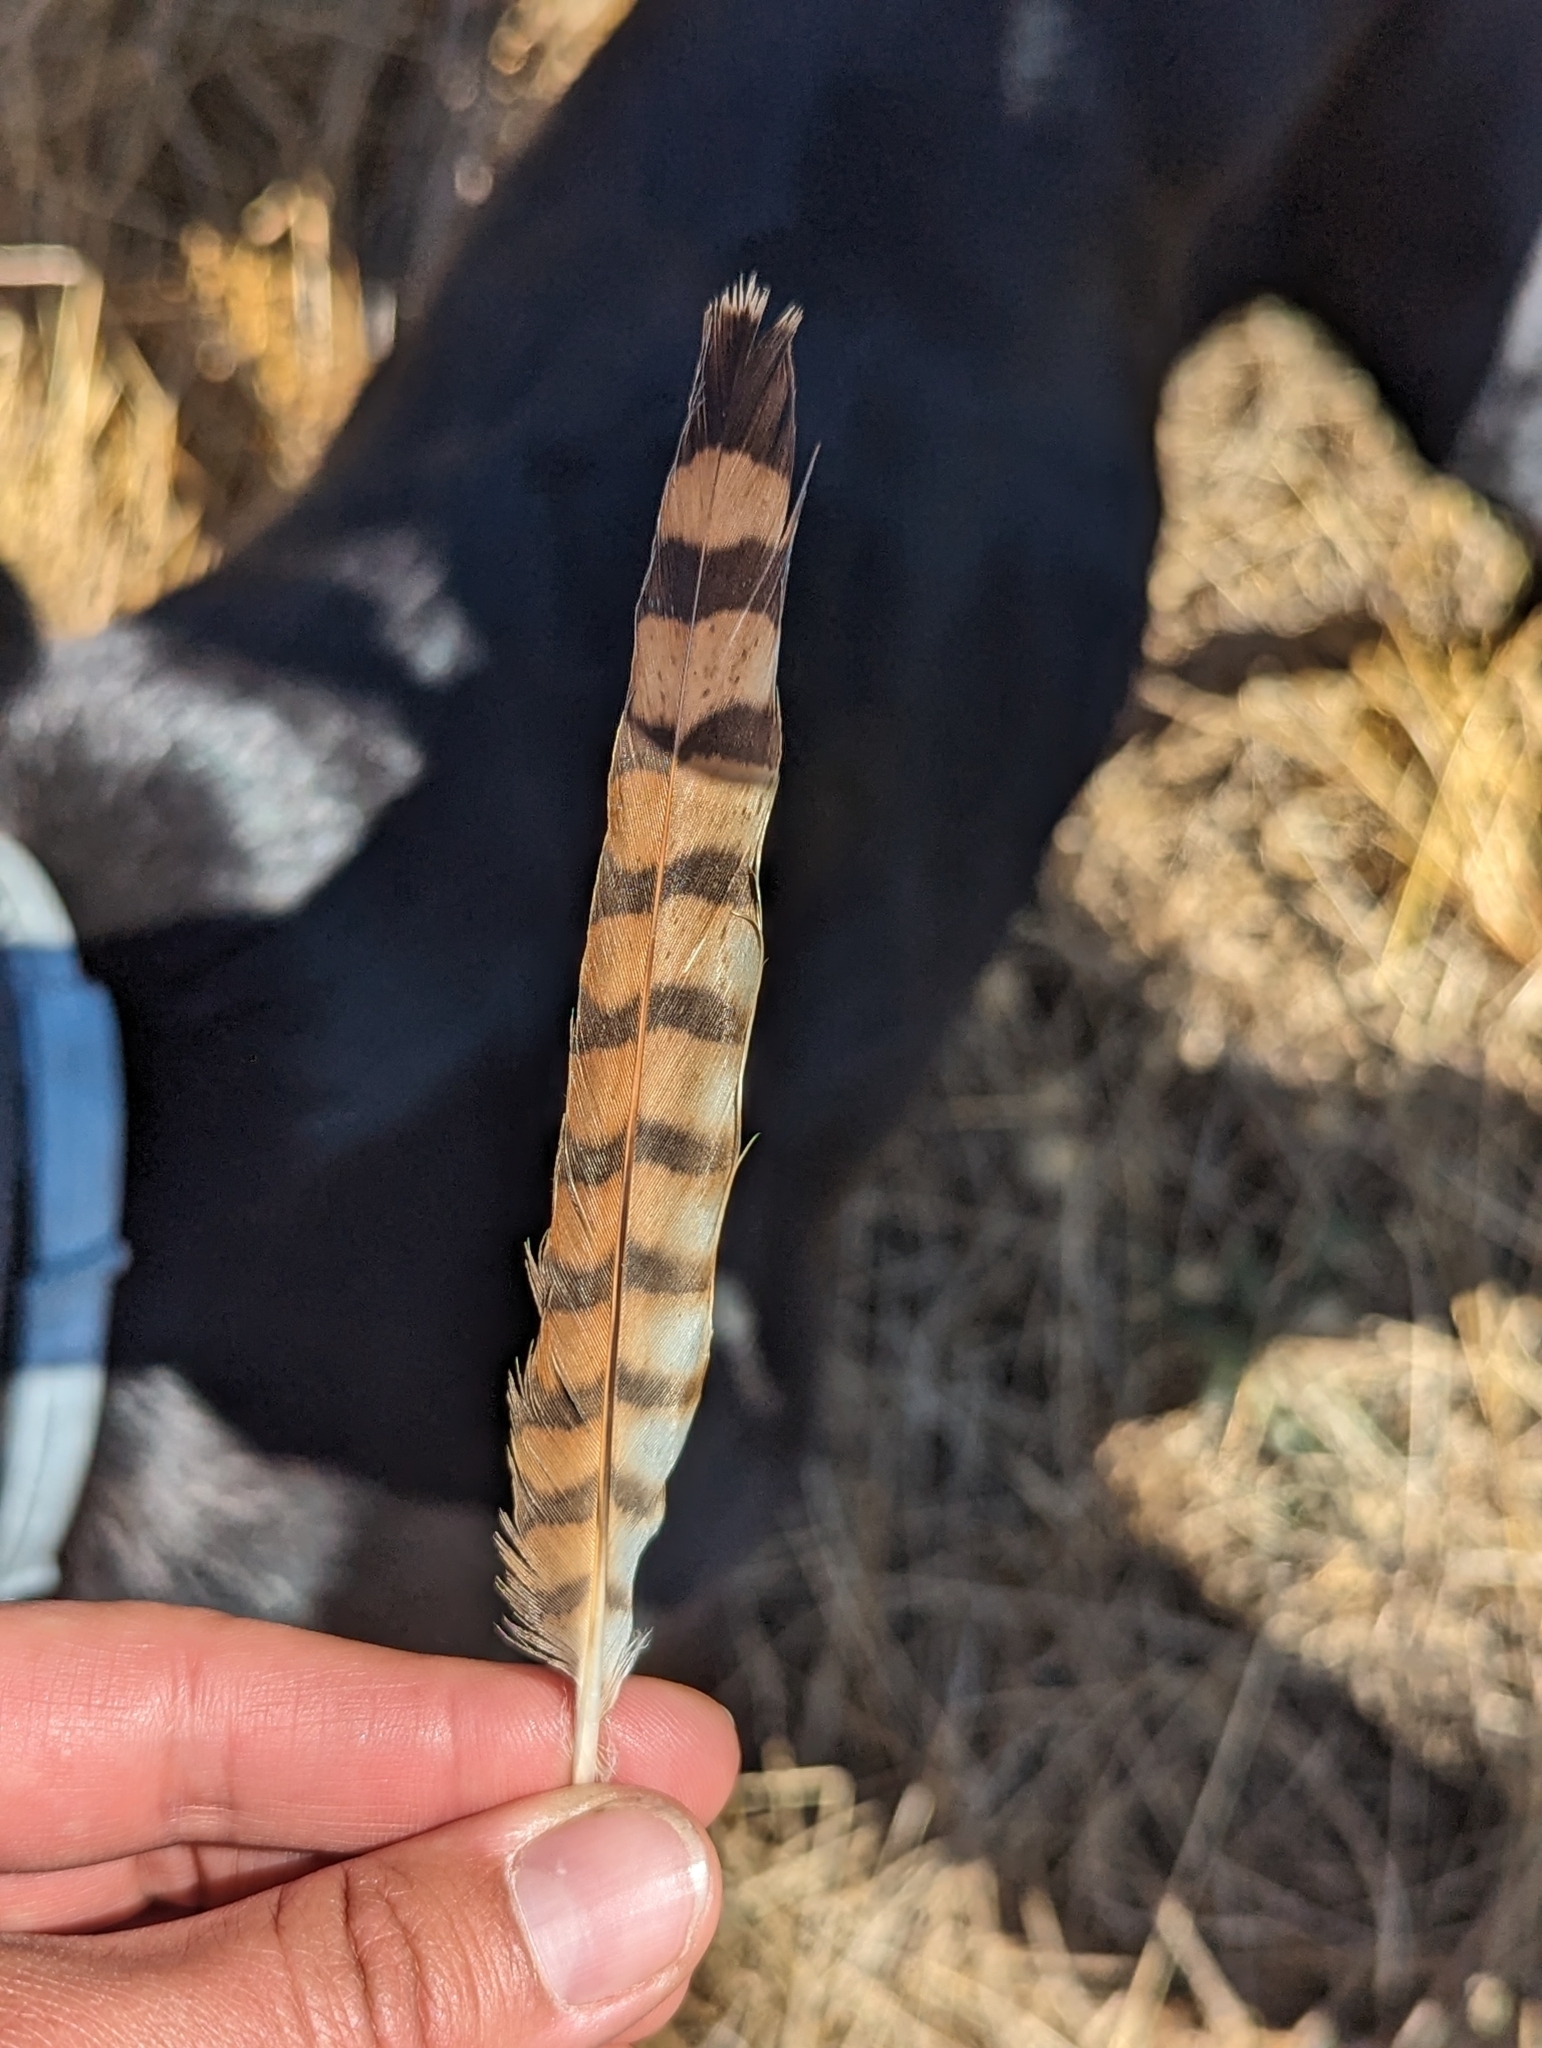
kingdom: Animalia
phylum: Chordata
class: Aves
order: Falconiformes
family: Falconidae
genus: Falco
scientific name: Falco sparverius
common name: American kestrel
